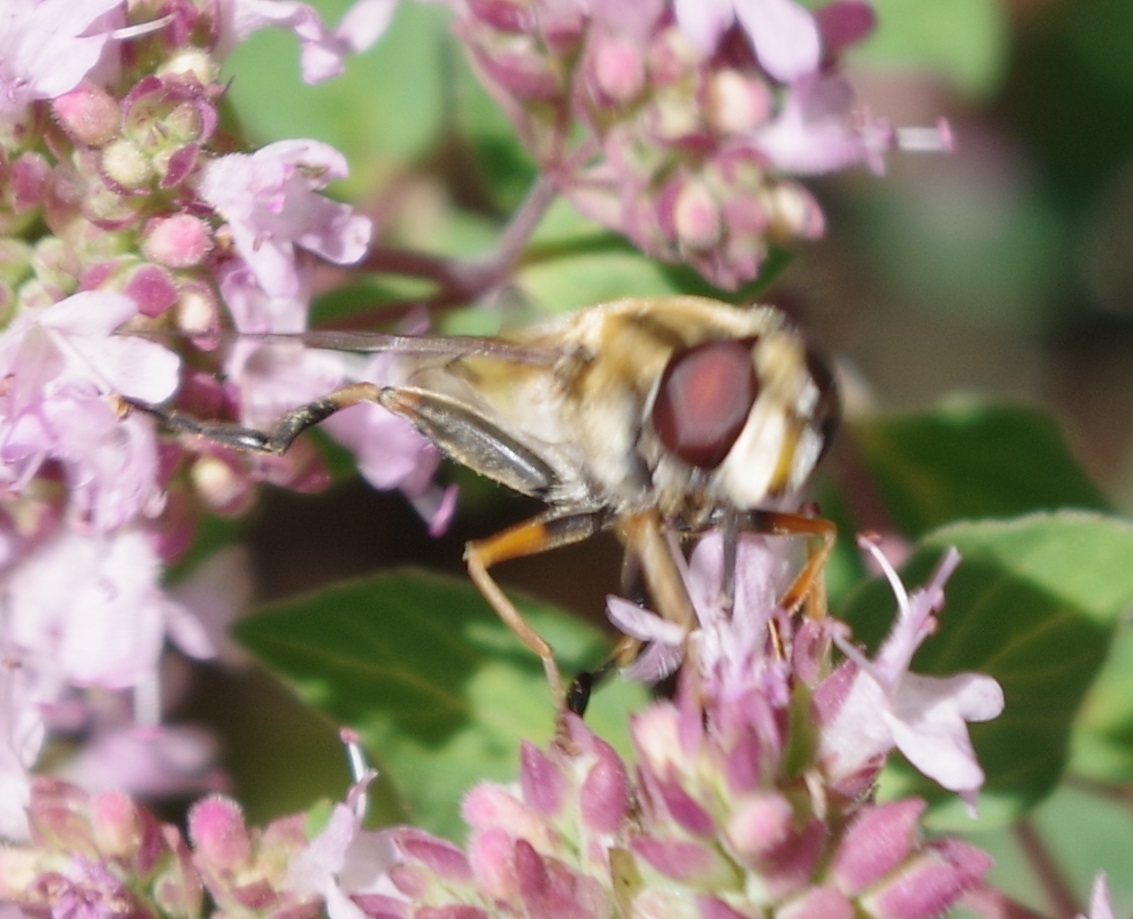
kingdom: Animalia
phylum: Arthropoda
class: Insecta
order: Diptera
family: Syrphidae
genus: Helophilus
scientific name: Helophilus trivittatus
